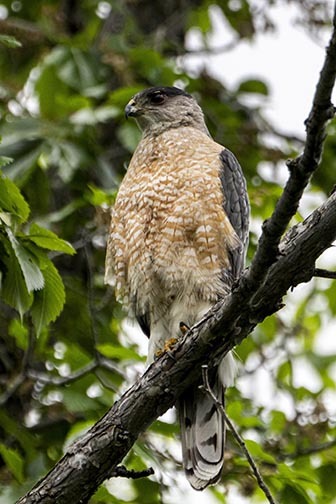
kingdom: Animalia
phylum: Chordata
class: Aves
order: Accipitriformes
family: Accipitridae
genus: Accipiter
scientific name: Accipiter cooperii
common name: Cooper's hawk
